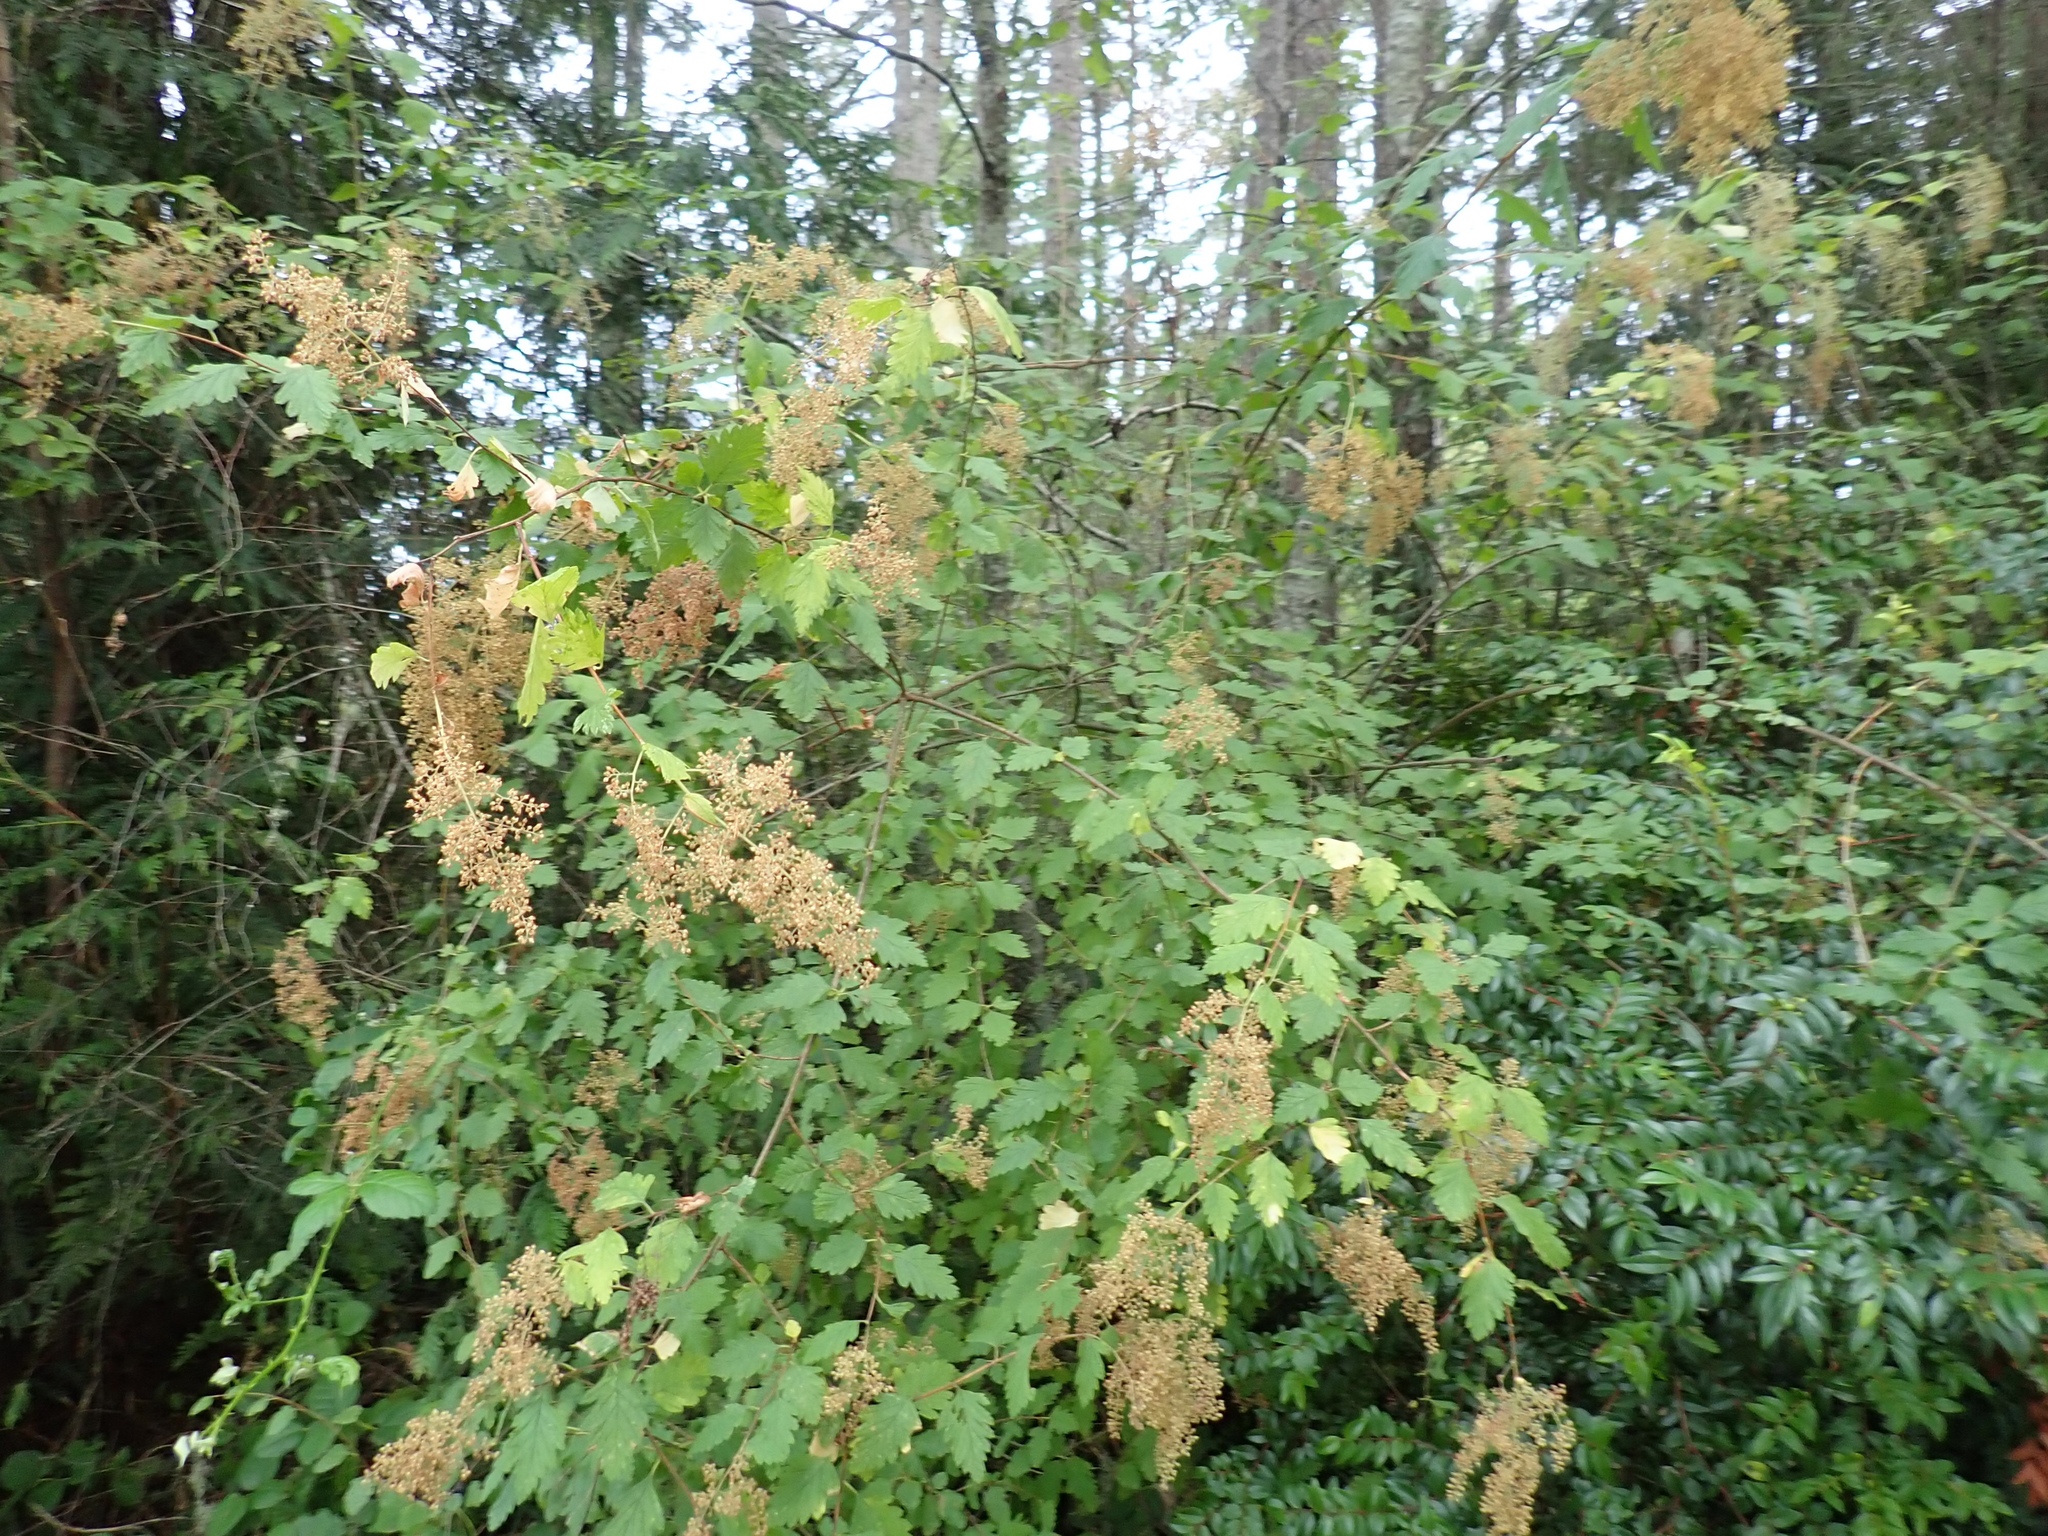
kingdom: Plantae
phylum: Tracheophyta
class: Magnoliopsida
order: Rosales
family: Rosaceae
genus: Holodiscus
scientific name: Holodiscus discolor
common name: Oceanspray
